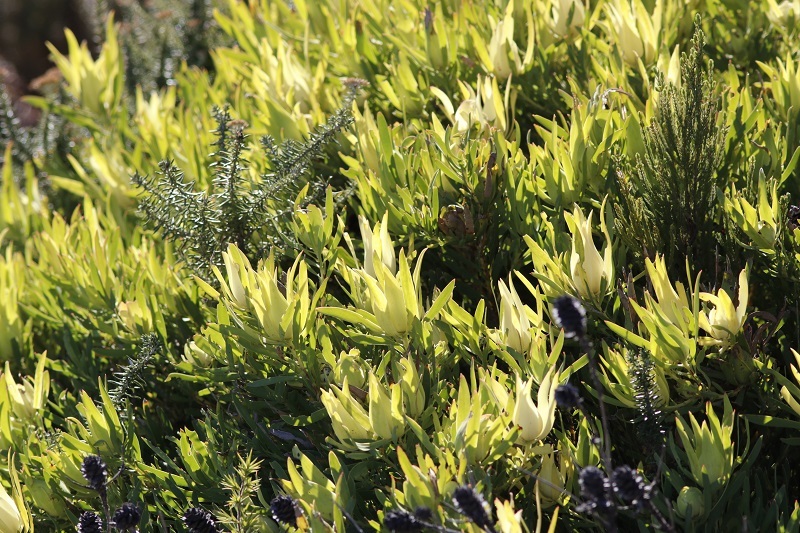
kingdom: Plantae
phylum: Tracheophyta
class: Magnoliopsida
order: Proteales
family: Proteaceae
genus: Leucadendron
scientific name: Leucadendron salignum
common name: Common sunshine conebush
